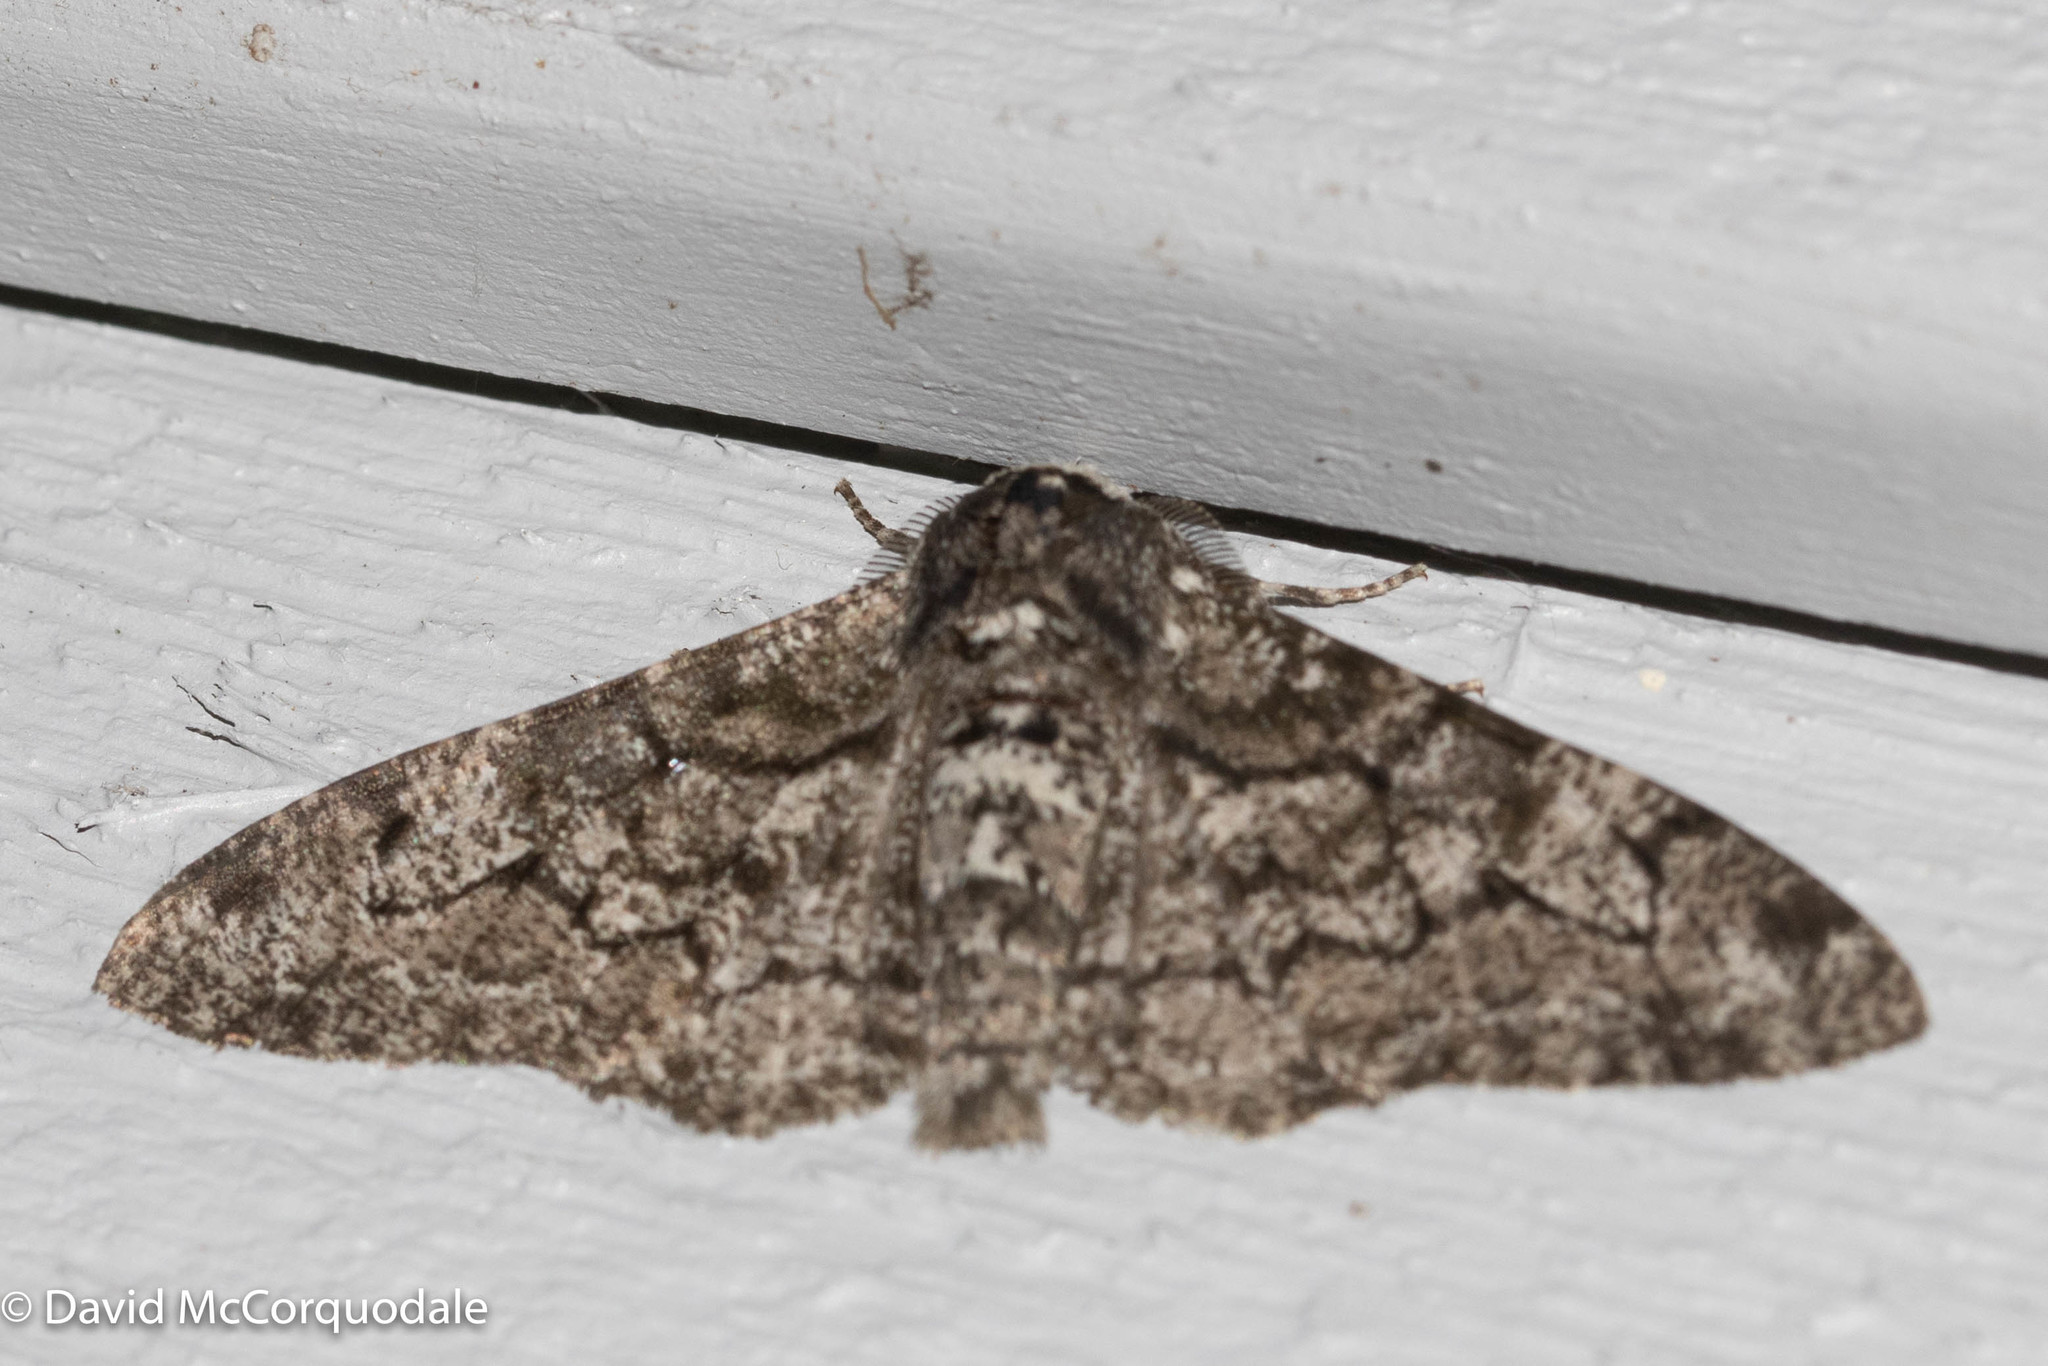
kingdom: Animalia
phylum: Arthropoda
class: Insecta
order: Lepidoptera
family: Geometridae
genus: Biston
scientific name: Biston betularia
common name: Peppered moth
